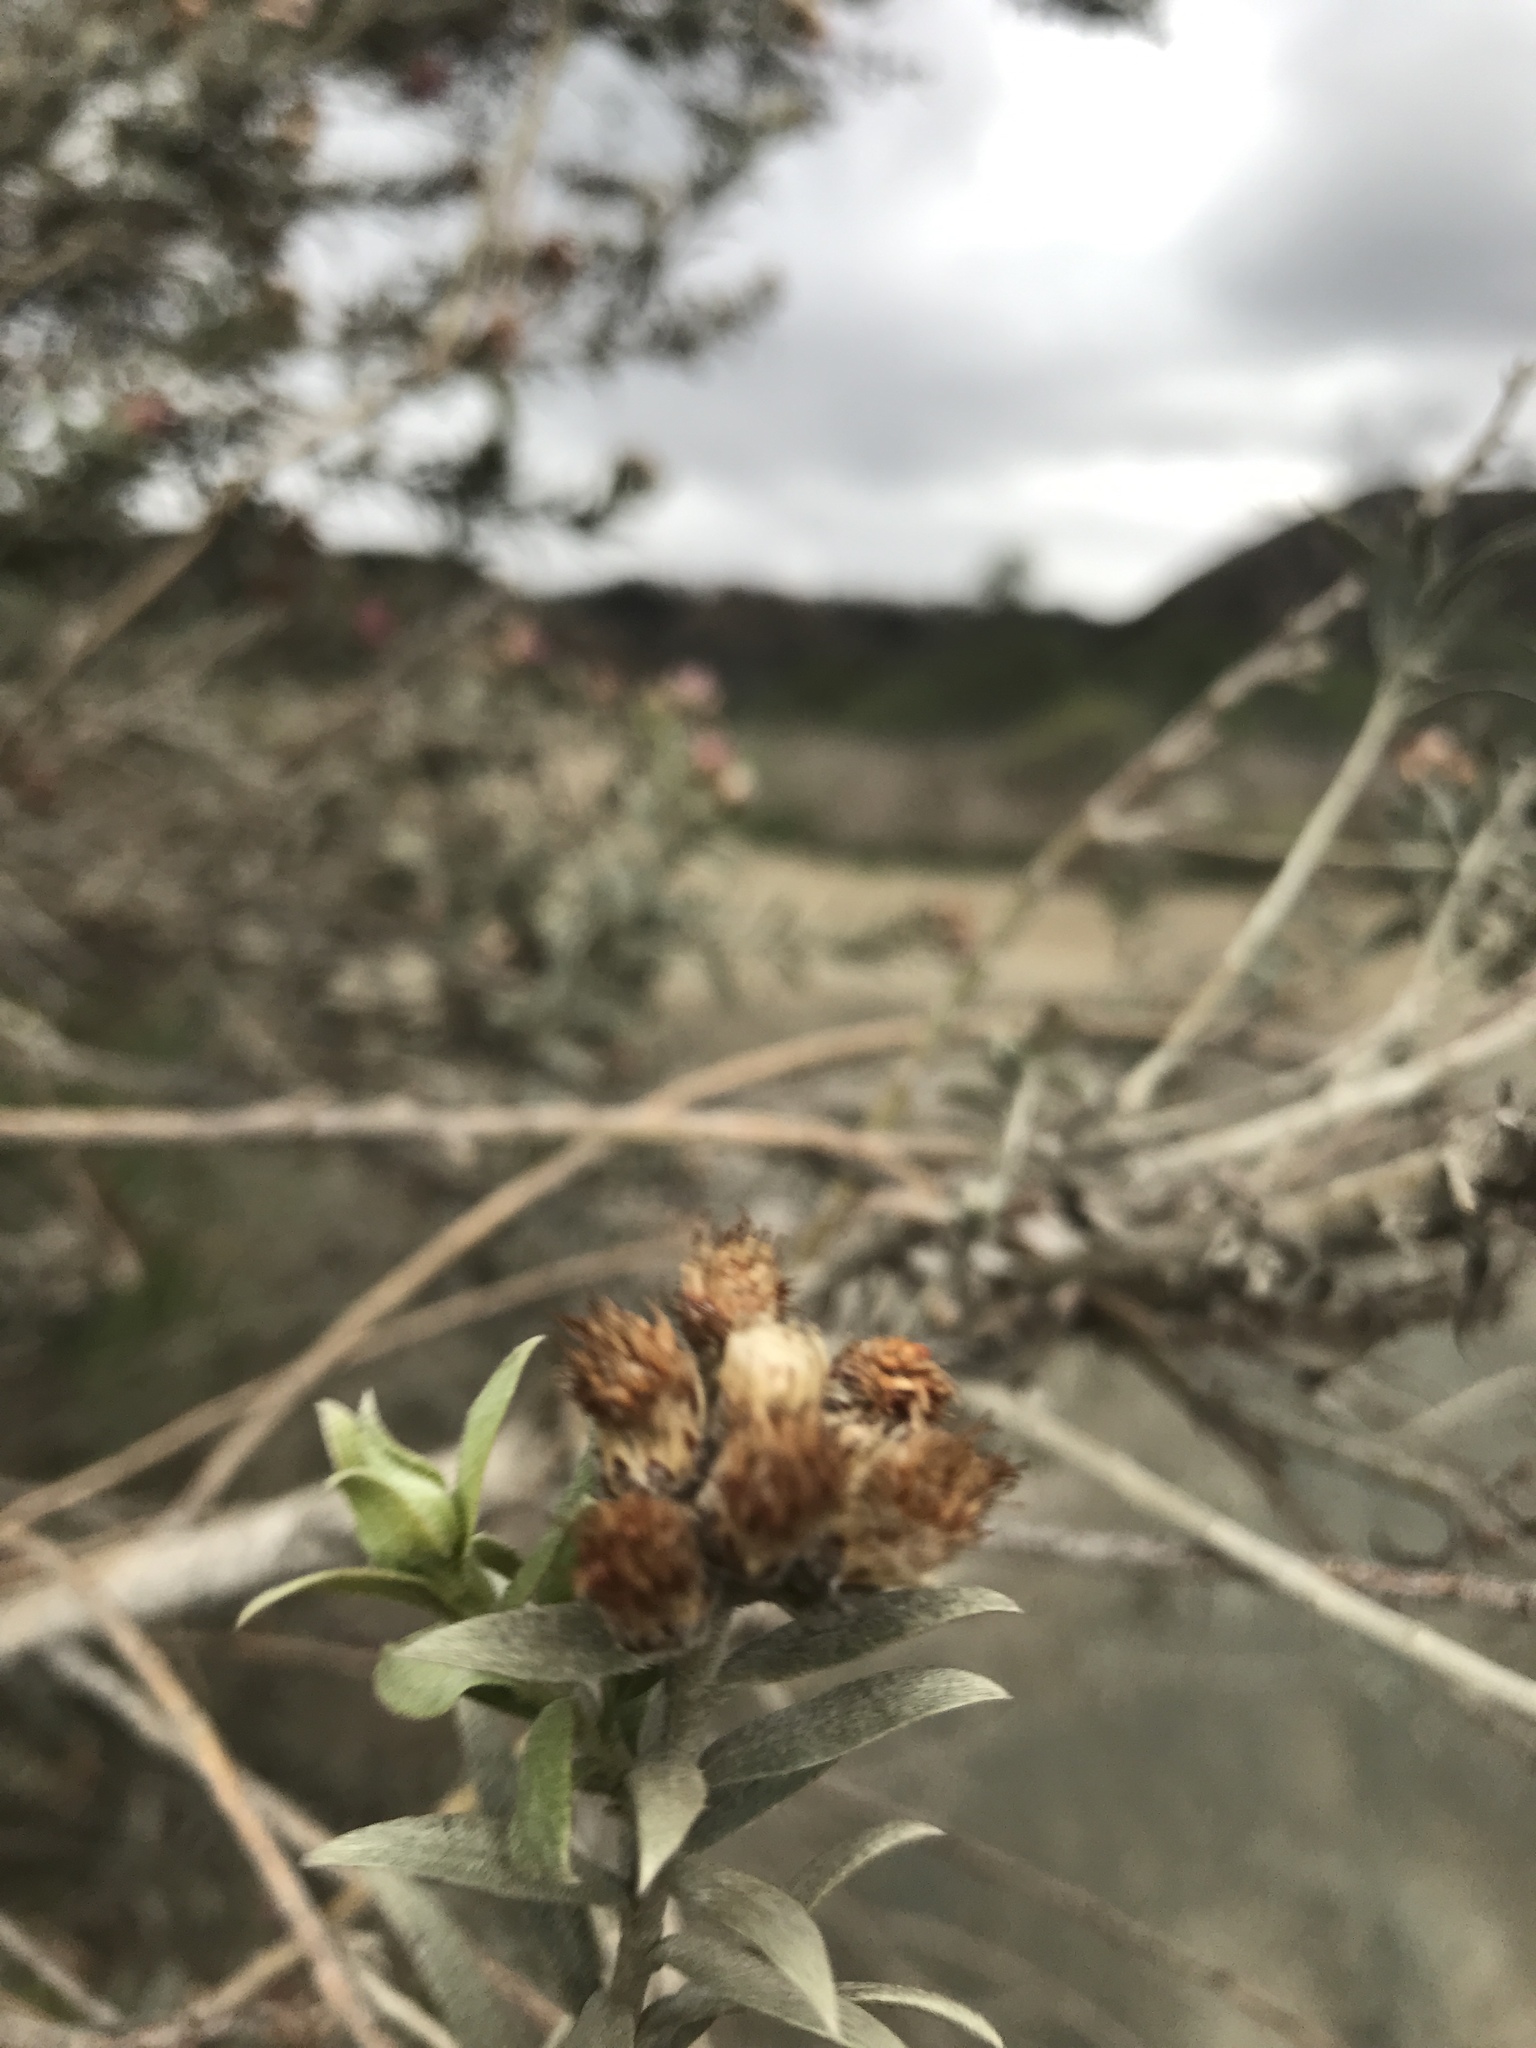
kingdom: Plantae
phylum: Tracheophyta
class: Magnoliopsida
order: Asterales
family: Asteraceae
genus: Pluchea
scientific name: Pluchea sericea
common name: Arrow-weed
